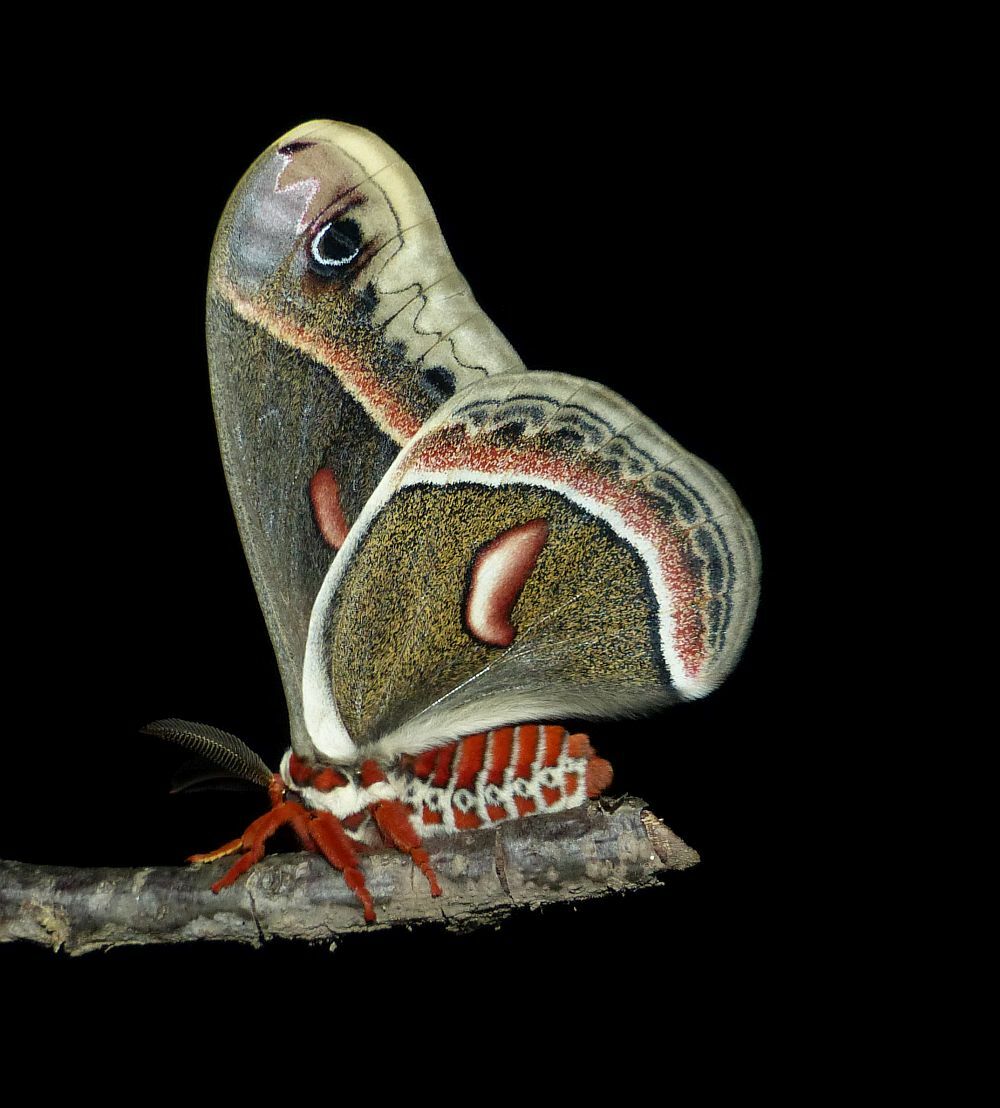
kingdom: Animalia
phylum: Arthropoda
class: Insecta
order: Lepidoptera
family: Saturniidae
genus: Hyalophora
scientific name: Hyalophora cecropia
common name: Cecropia silkmoth
